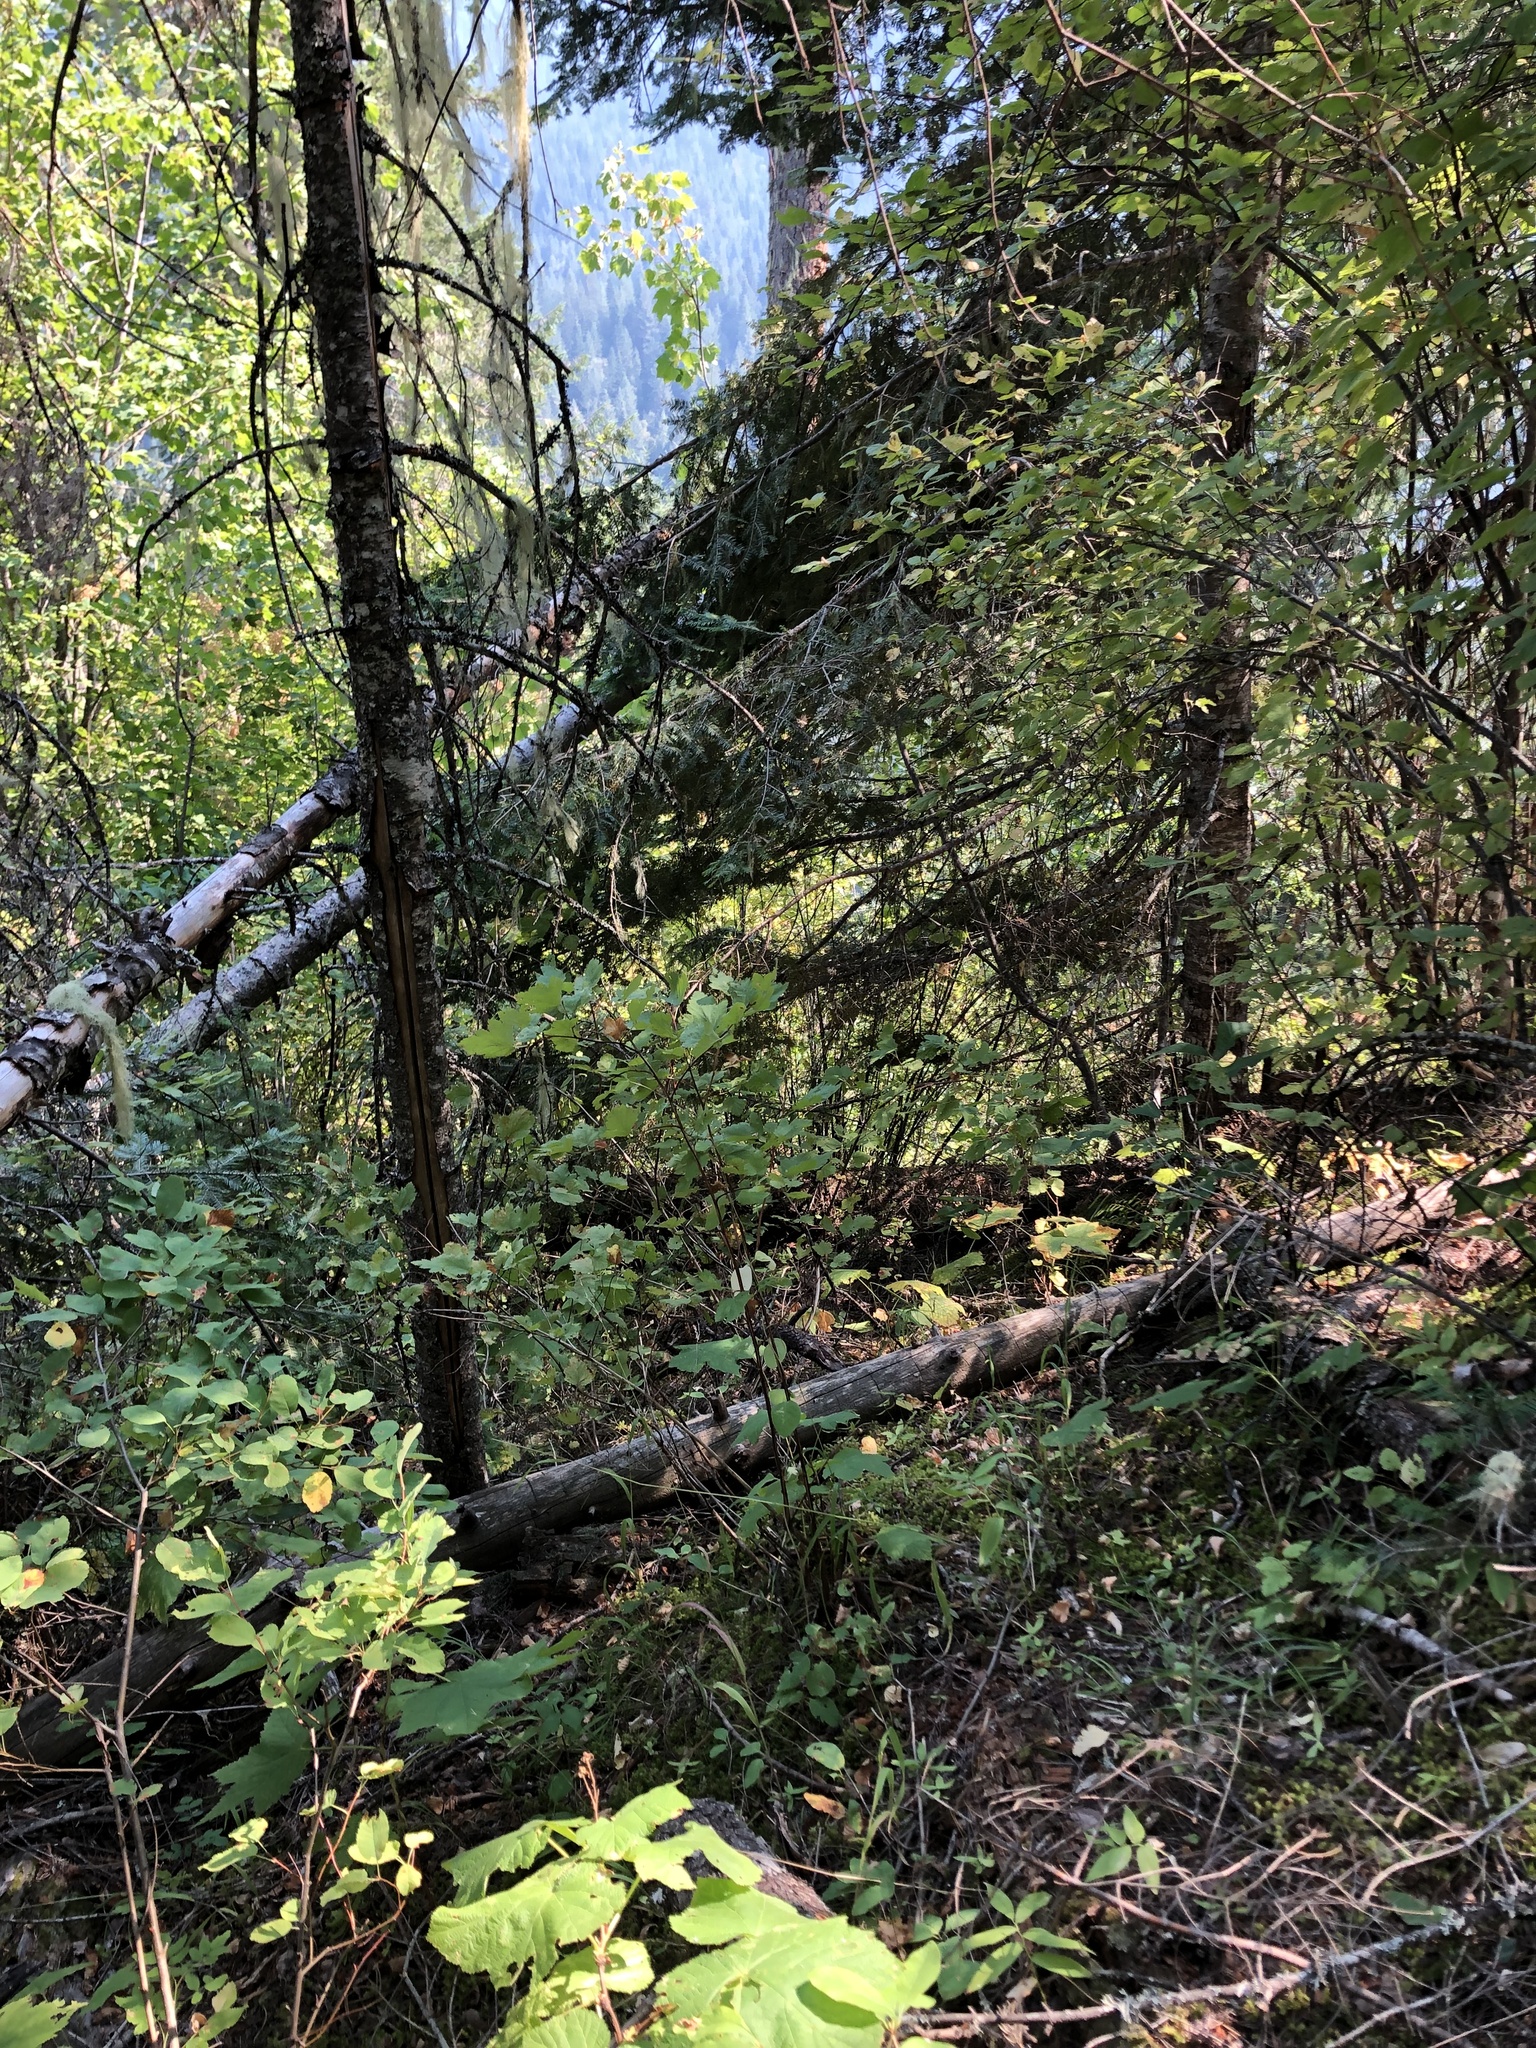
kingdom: Plantae
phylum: Tracheophyta
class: Liliopsida
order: Asparagales
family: Asparagaceae
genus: Maianthemum
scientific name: Maianthemum racemosum
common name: False spikenard
